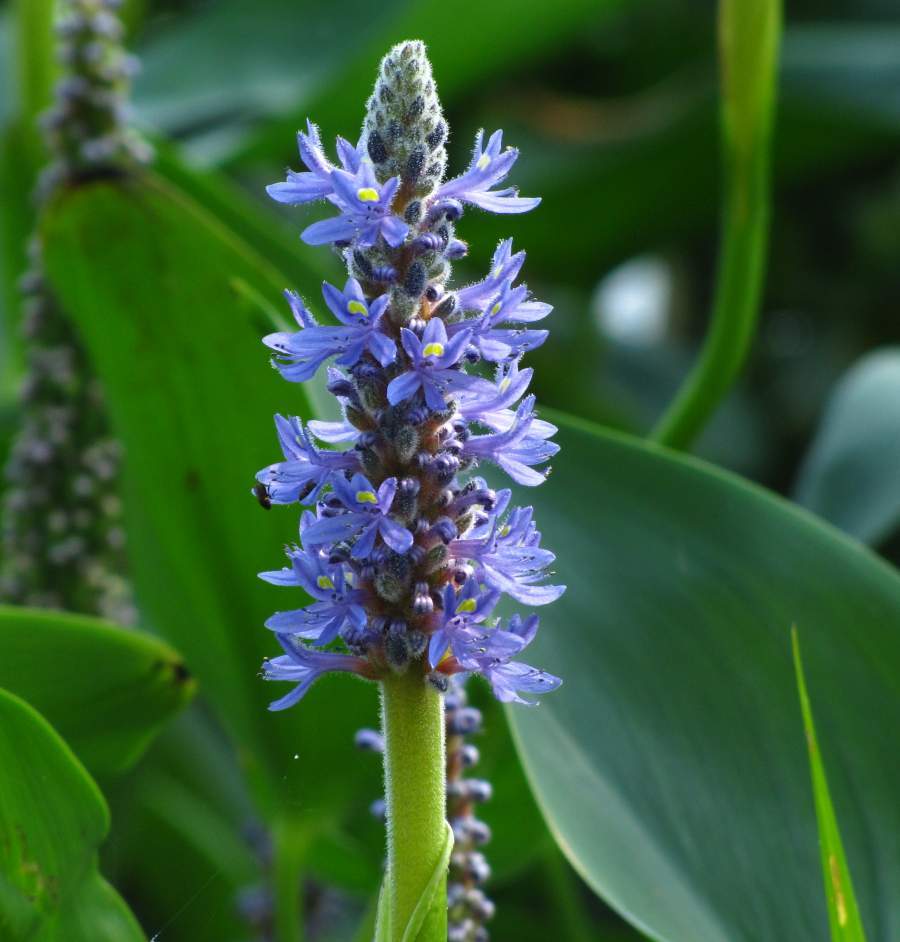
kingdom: Plantae
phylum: Tracheophyta
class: Liliopsida
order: Commelinales
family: Pontederiaceae
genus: Pontederia
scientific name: Pontederia cordata
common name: Pickerelweed
